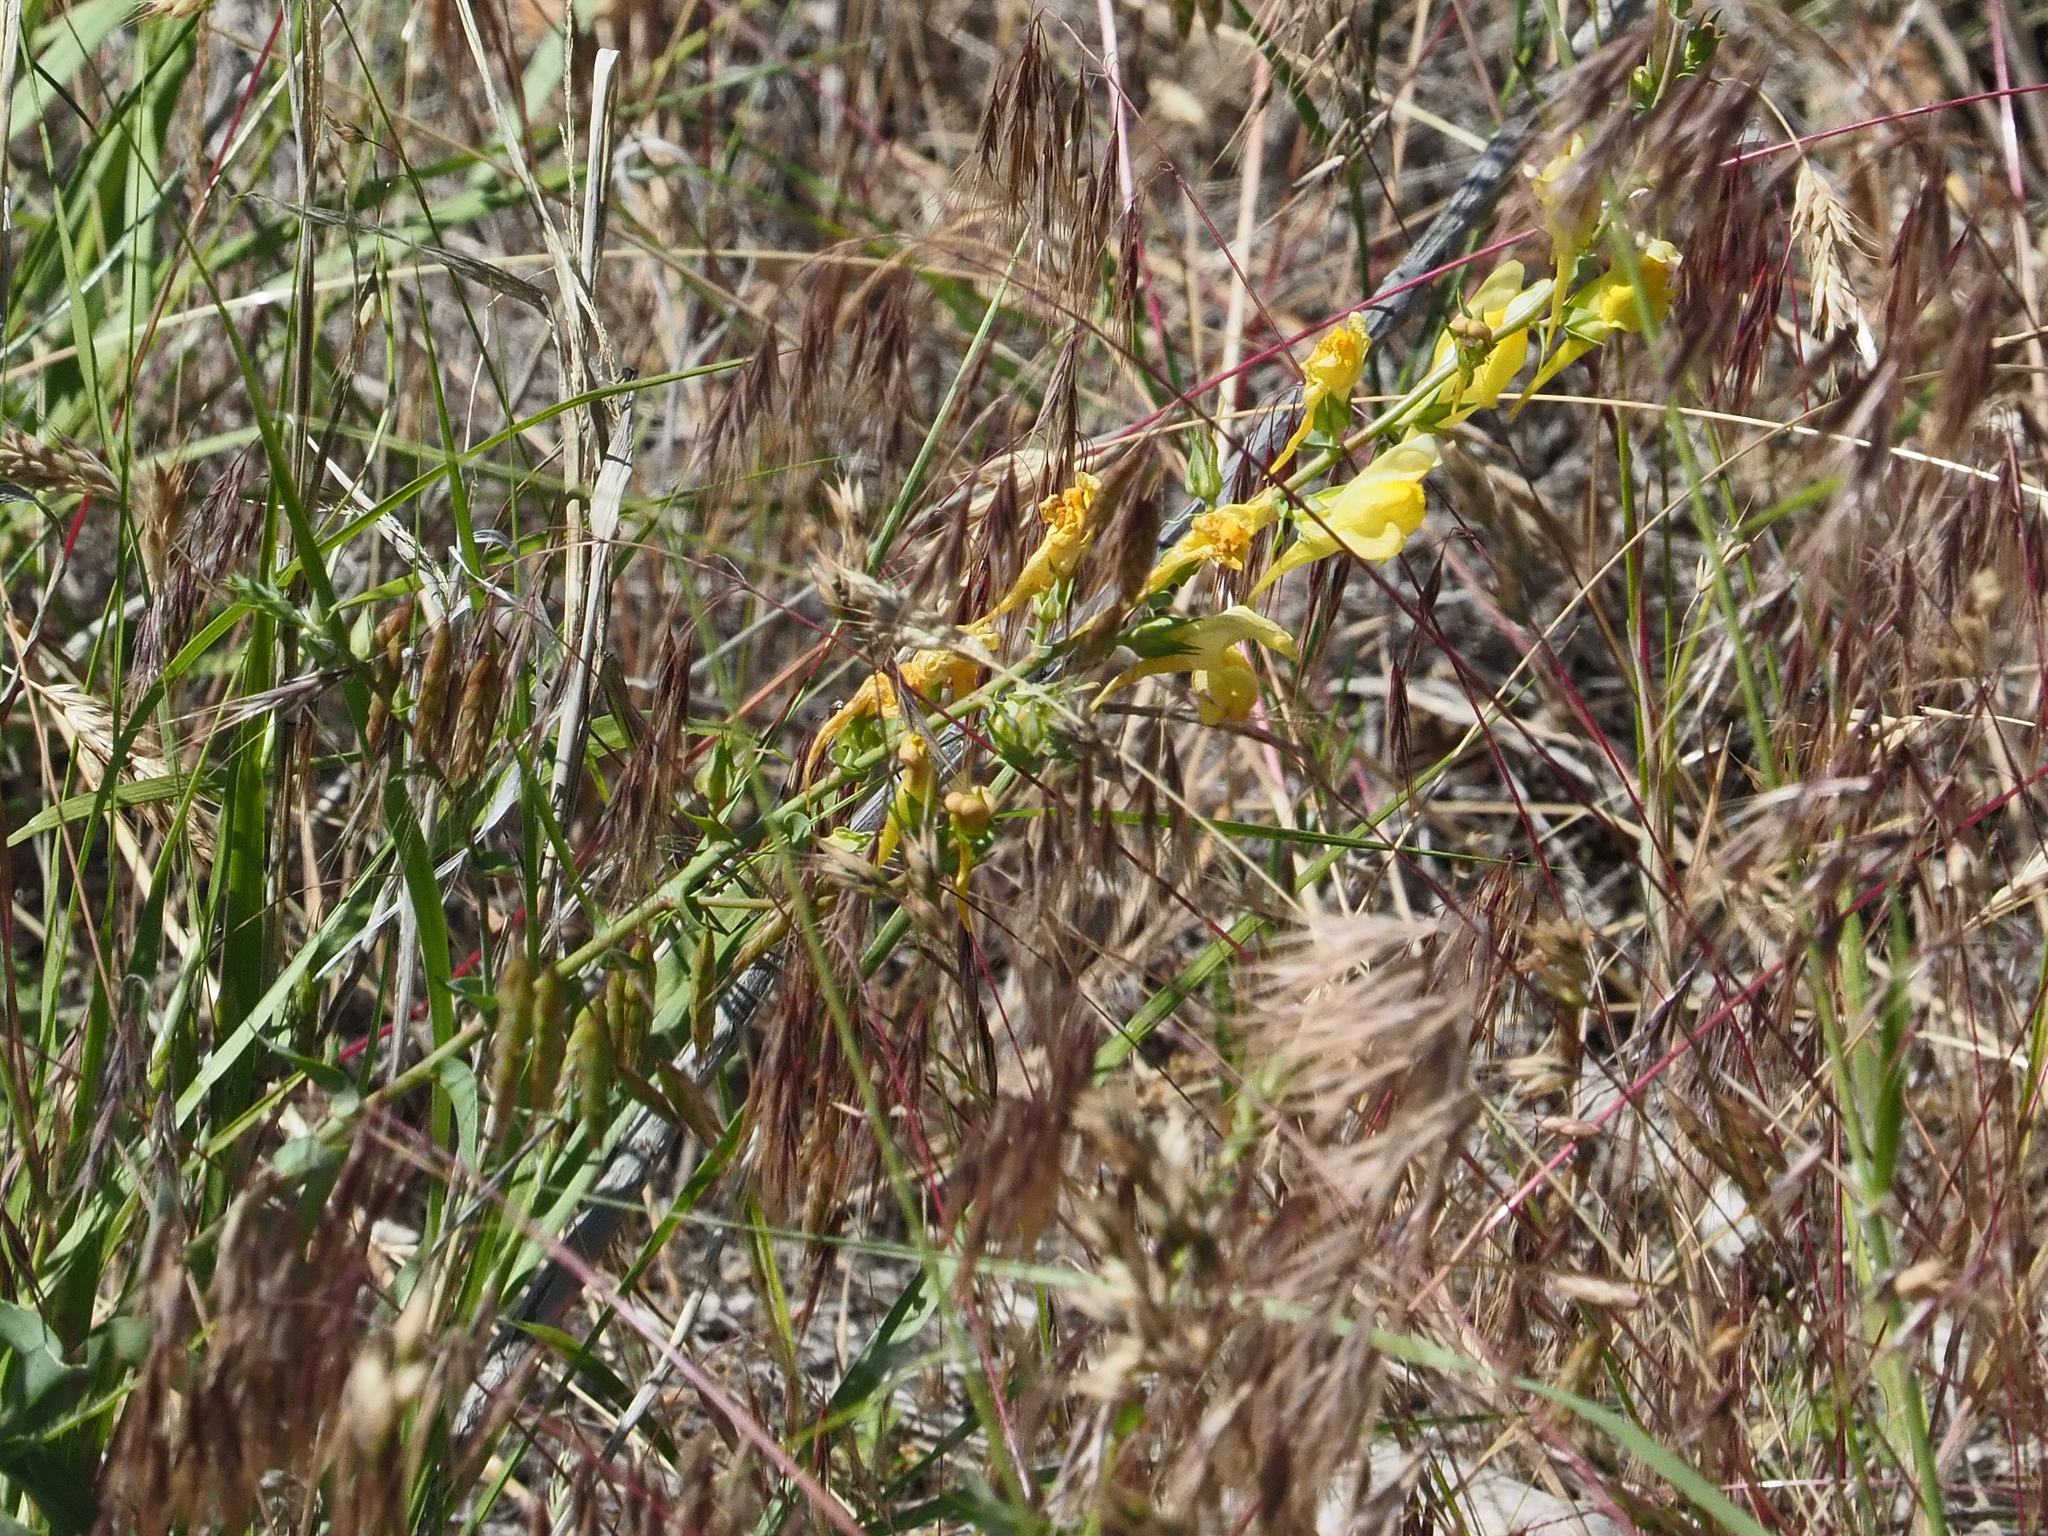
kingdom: Plantae
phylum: Tracheophyta
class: Magnoliopsida
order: Lamiales
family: Plantaginaceae
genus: Linaria
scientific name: Linaria dalmatica
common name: Dalmatian toadflax
